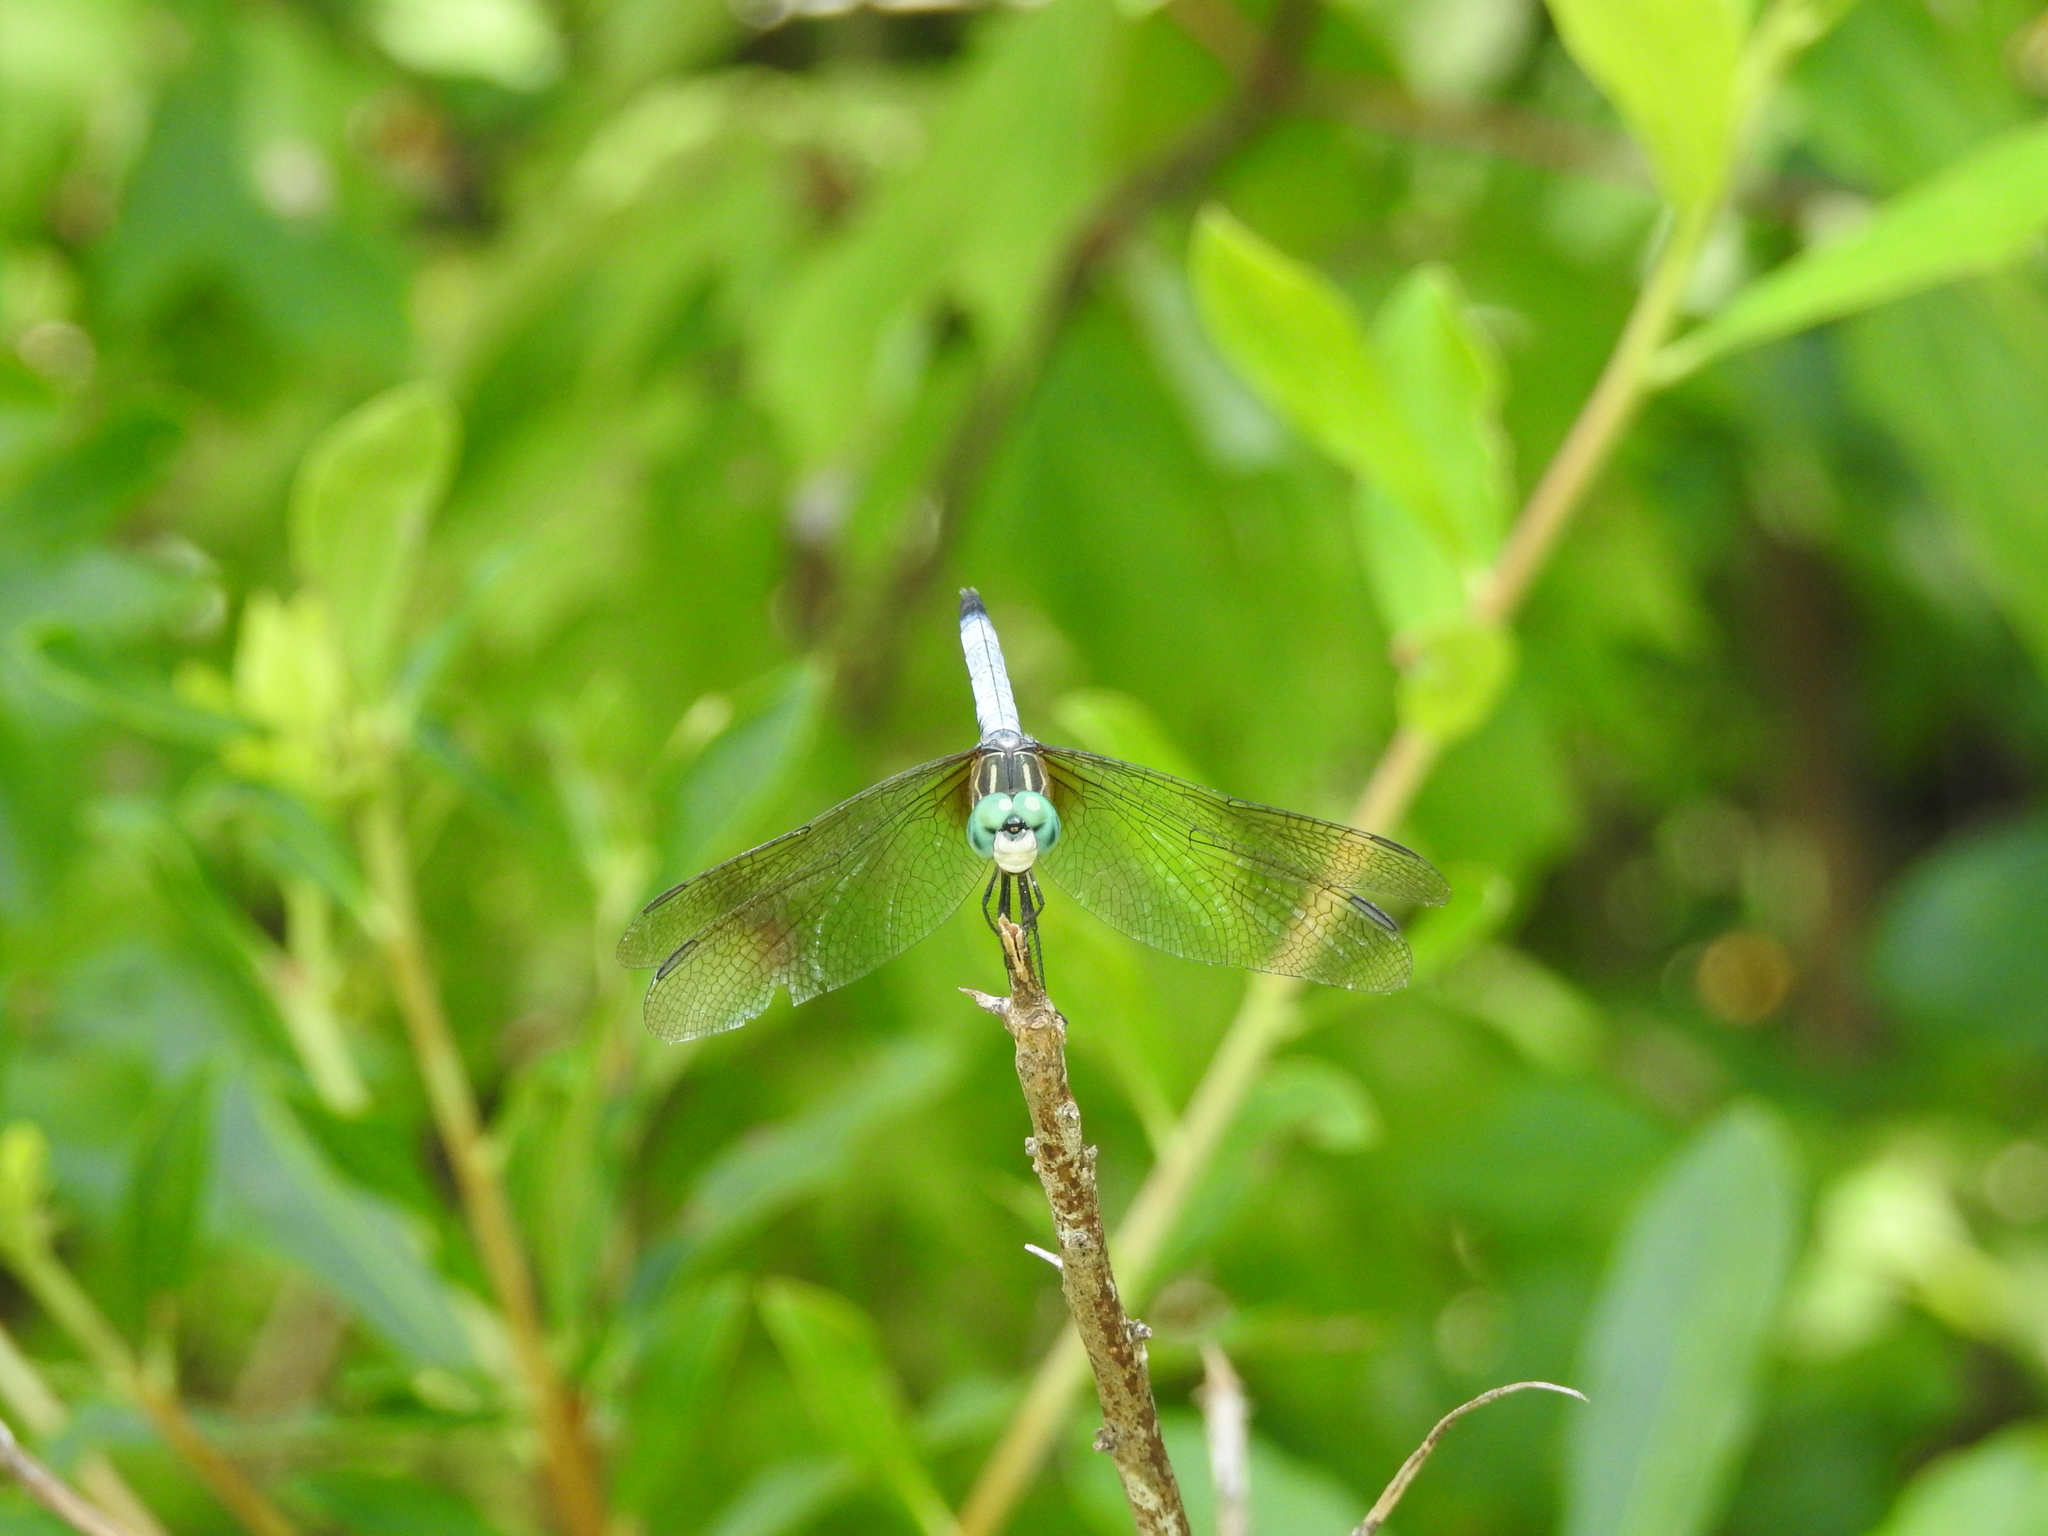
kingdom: Animalia
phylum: Arthropoda
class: Insecta
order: Odonata
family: Libellulidae
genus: Pachydiplax
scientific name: Pachydiplax longipennis
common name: Blue dasher
